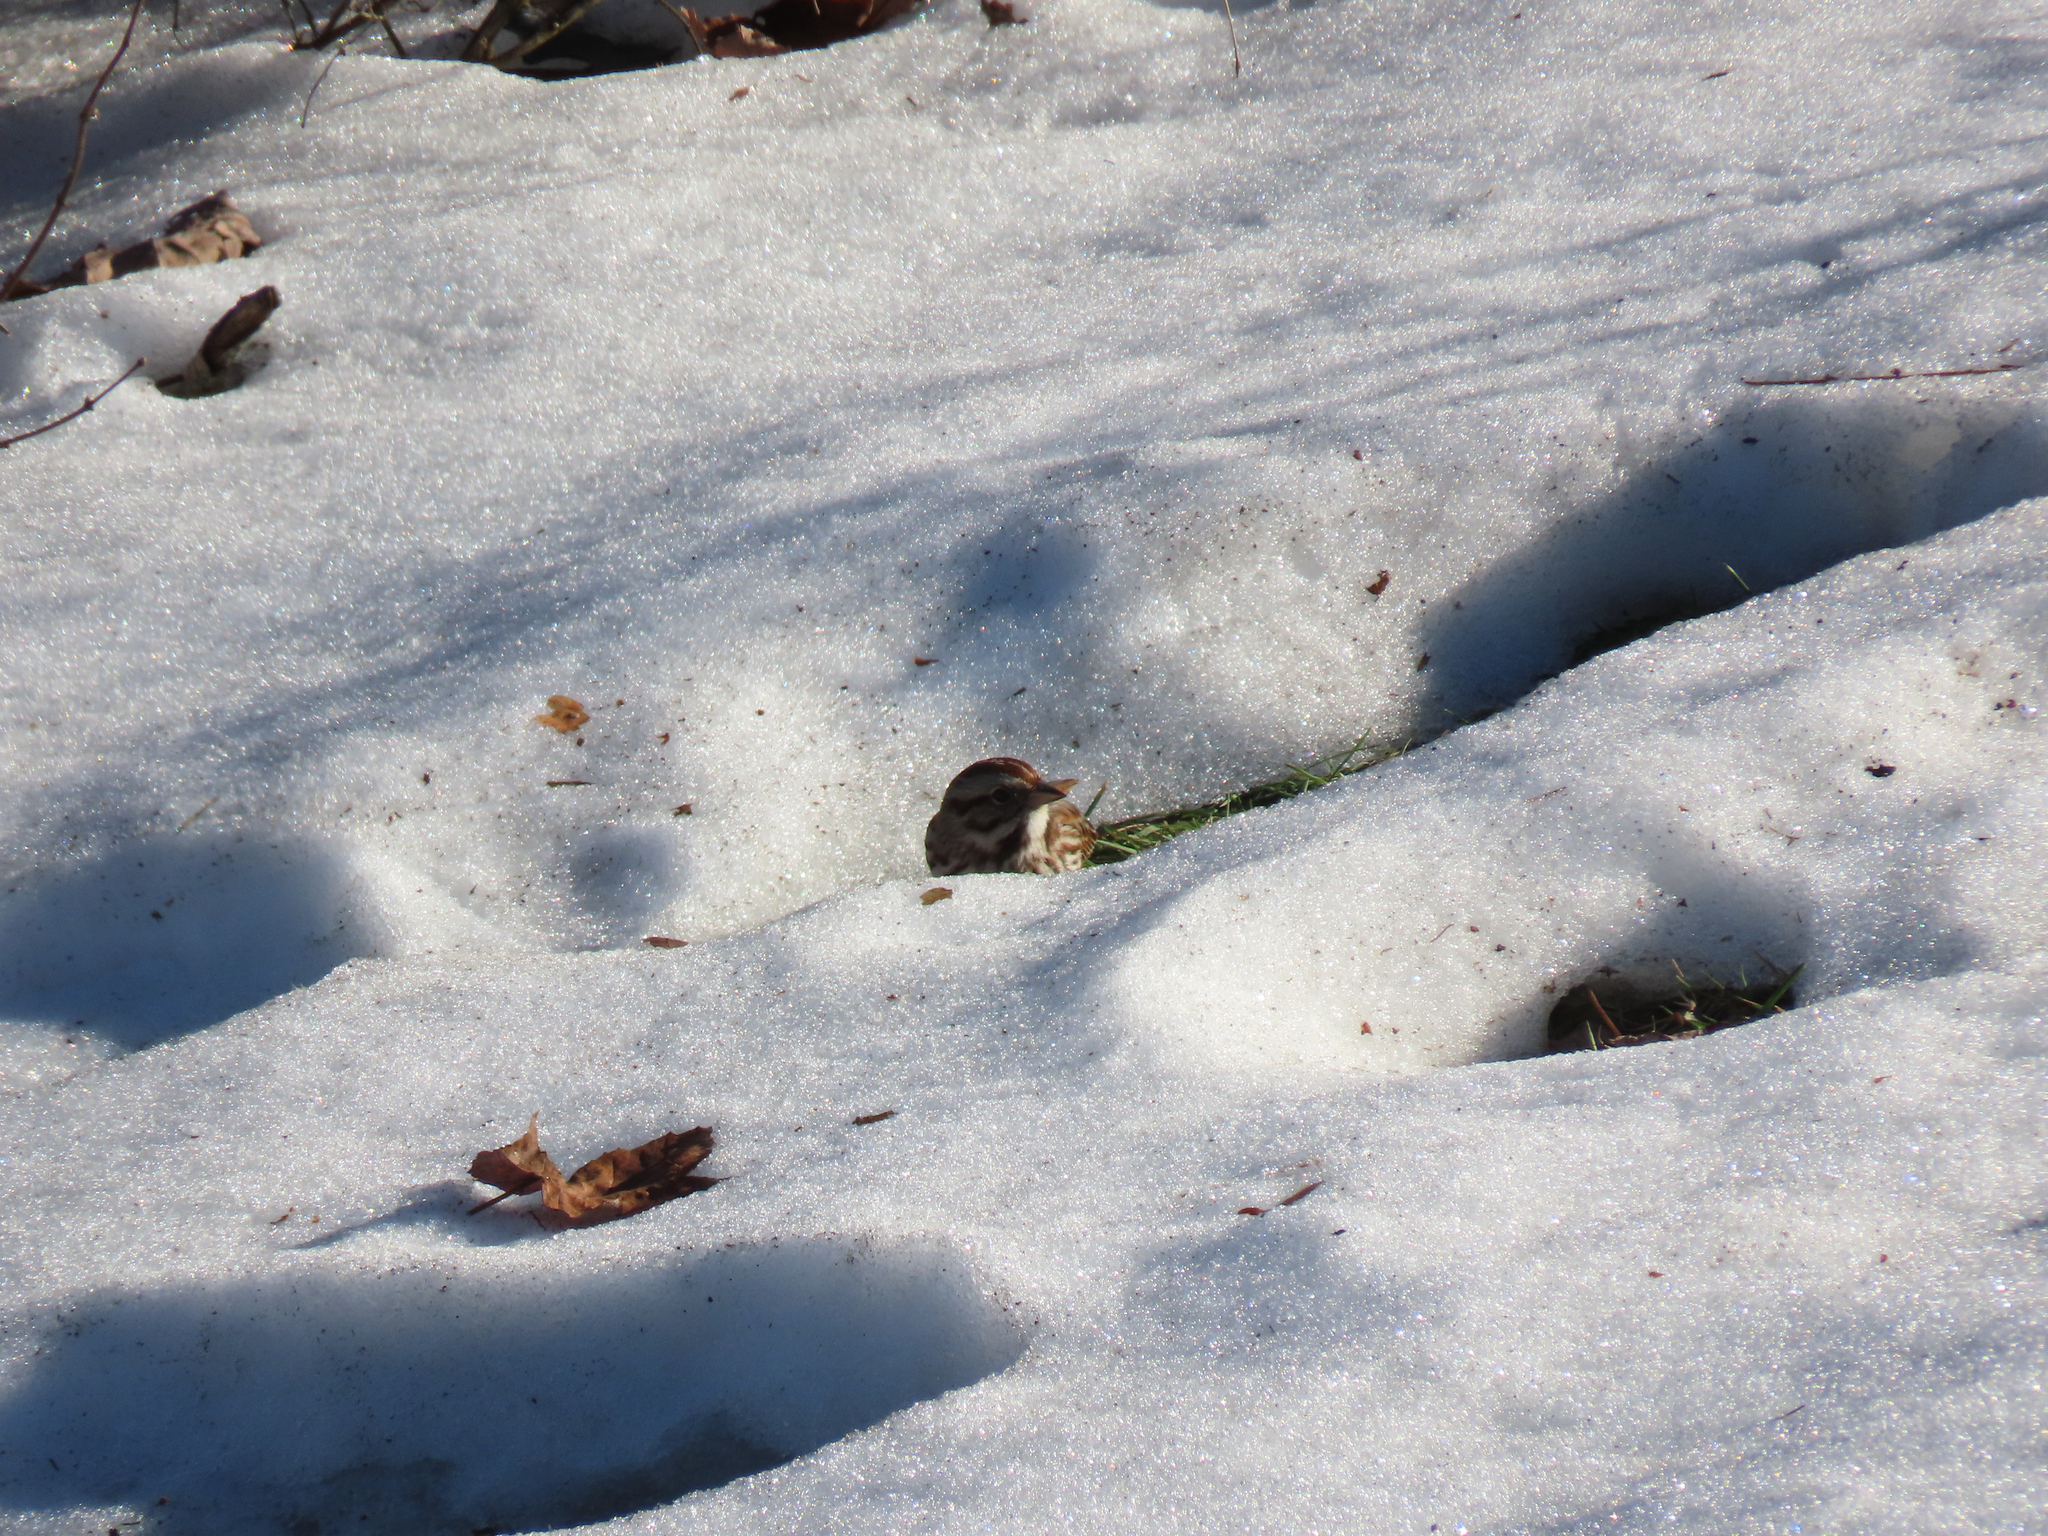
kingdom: Animalia
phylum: Chordata
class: Aves
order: Passeriformes
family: Passerellidae
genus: Melospiza
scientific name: Melospiza melodia
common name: Song sparrow
